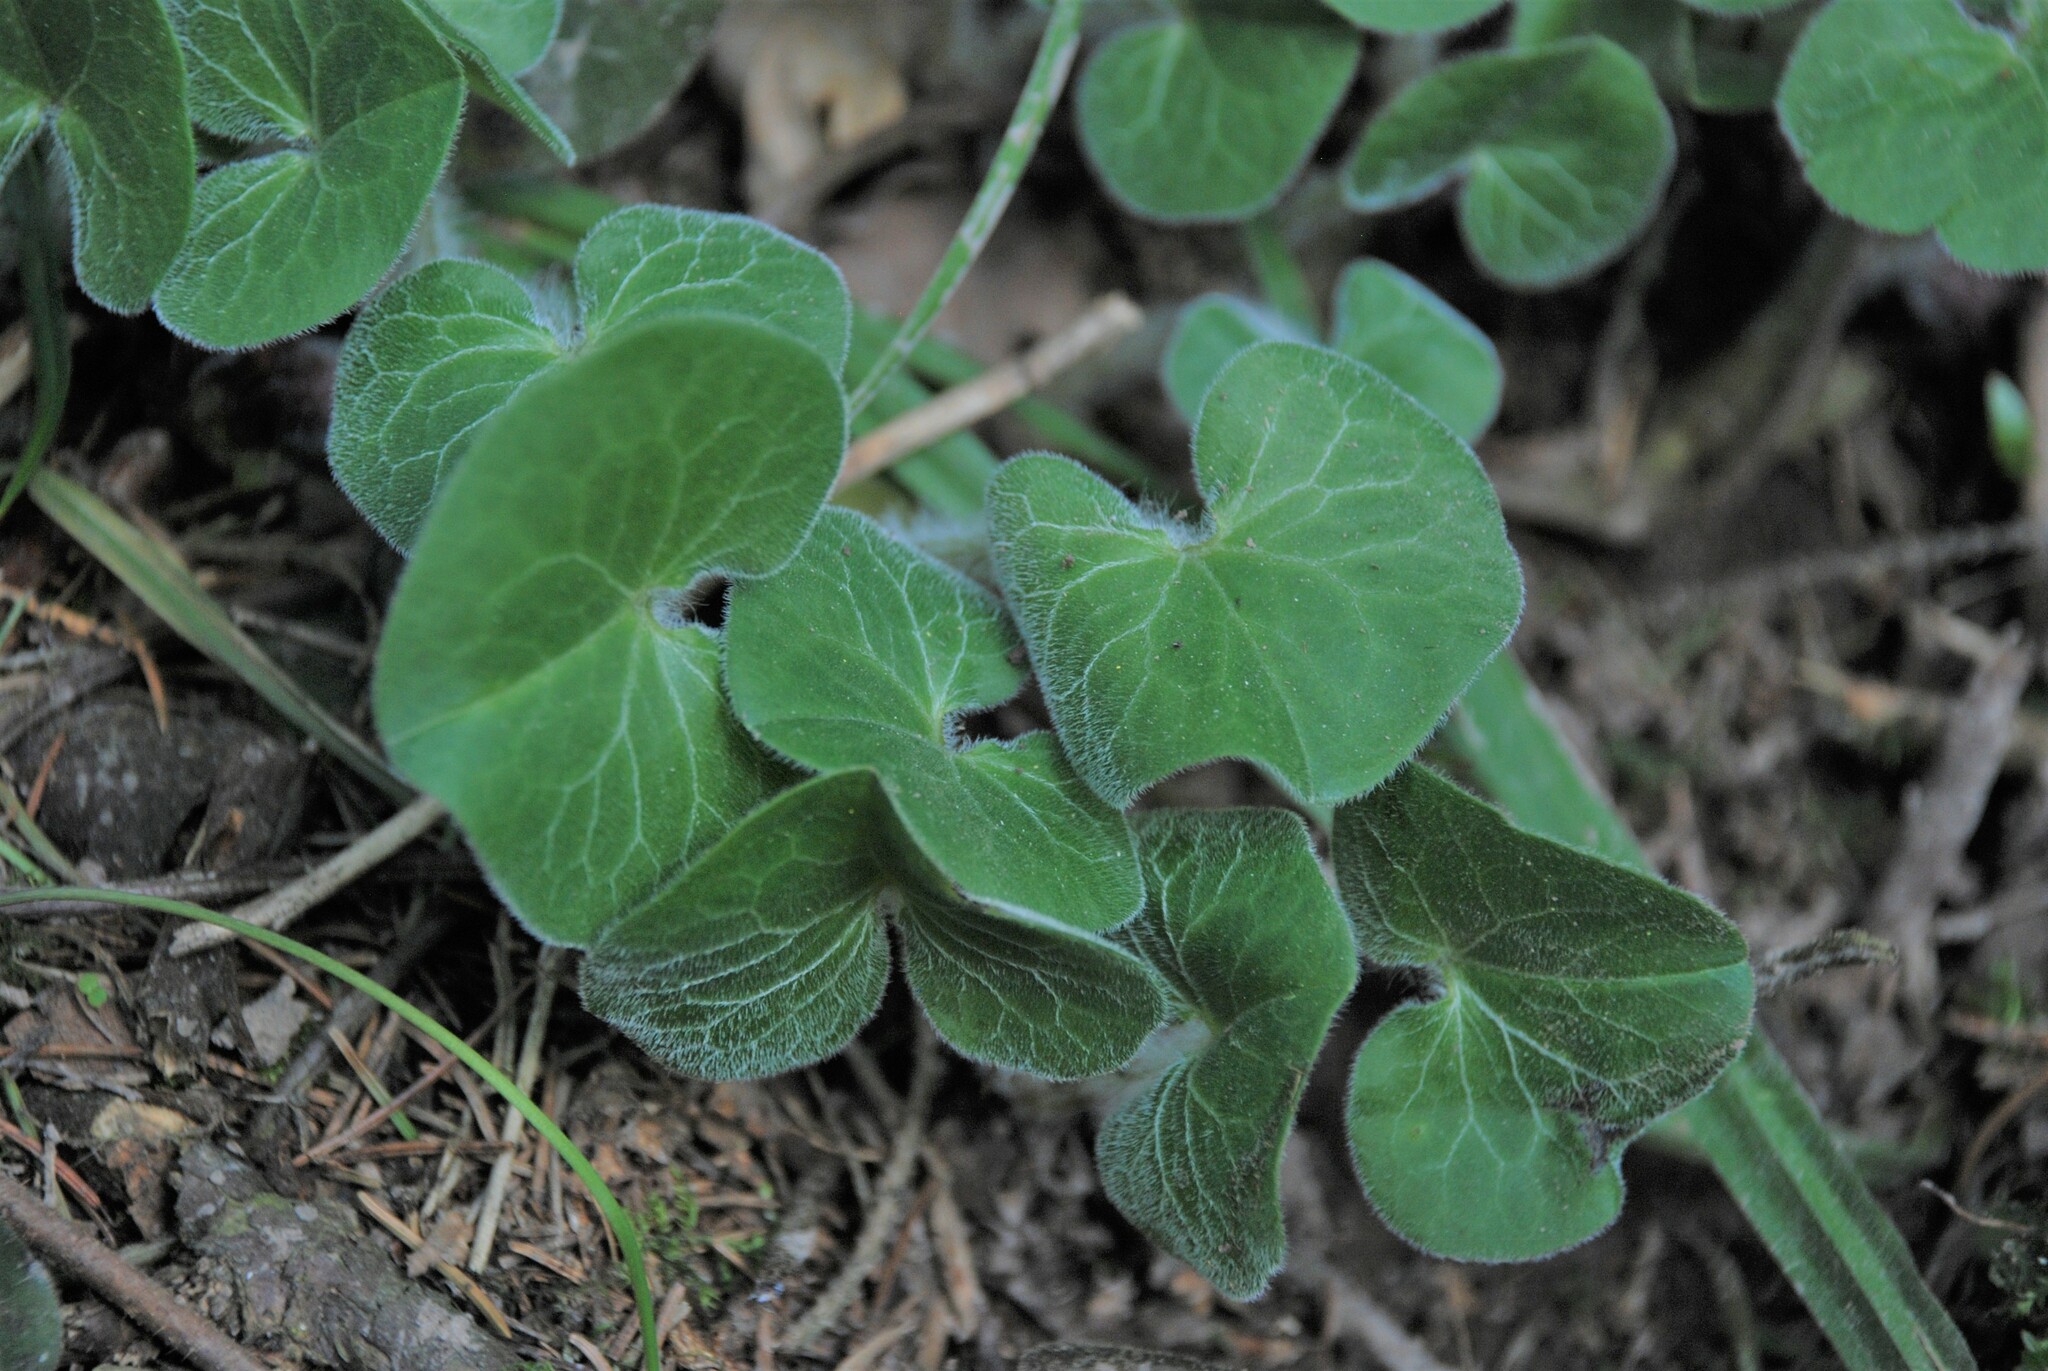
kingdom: Plantae
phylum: Tracheophyta
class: Magnoliopsida
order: Piperales
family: Aristolochiaceae
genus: Asarum
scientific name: Asarum europaeum
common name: Asarabacca
